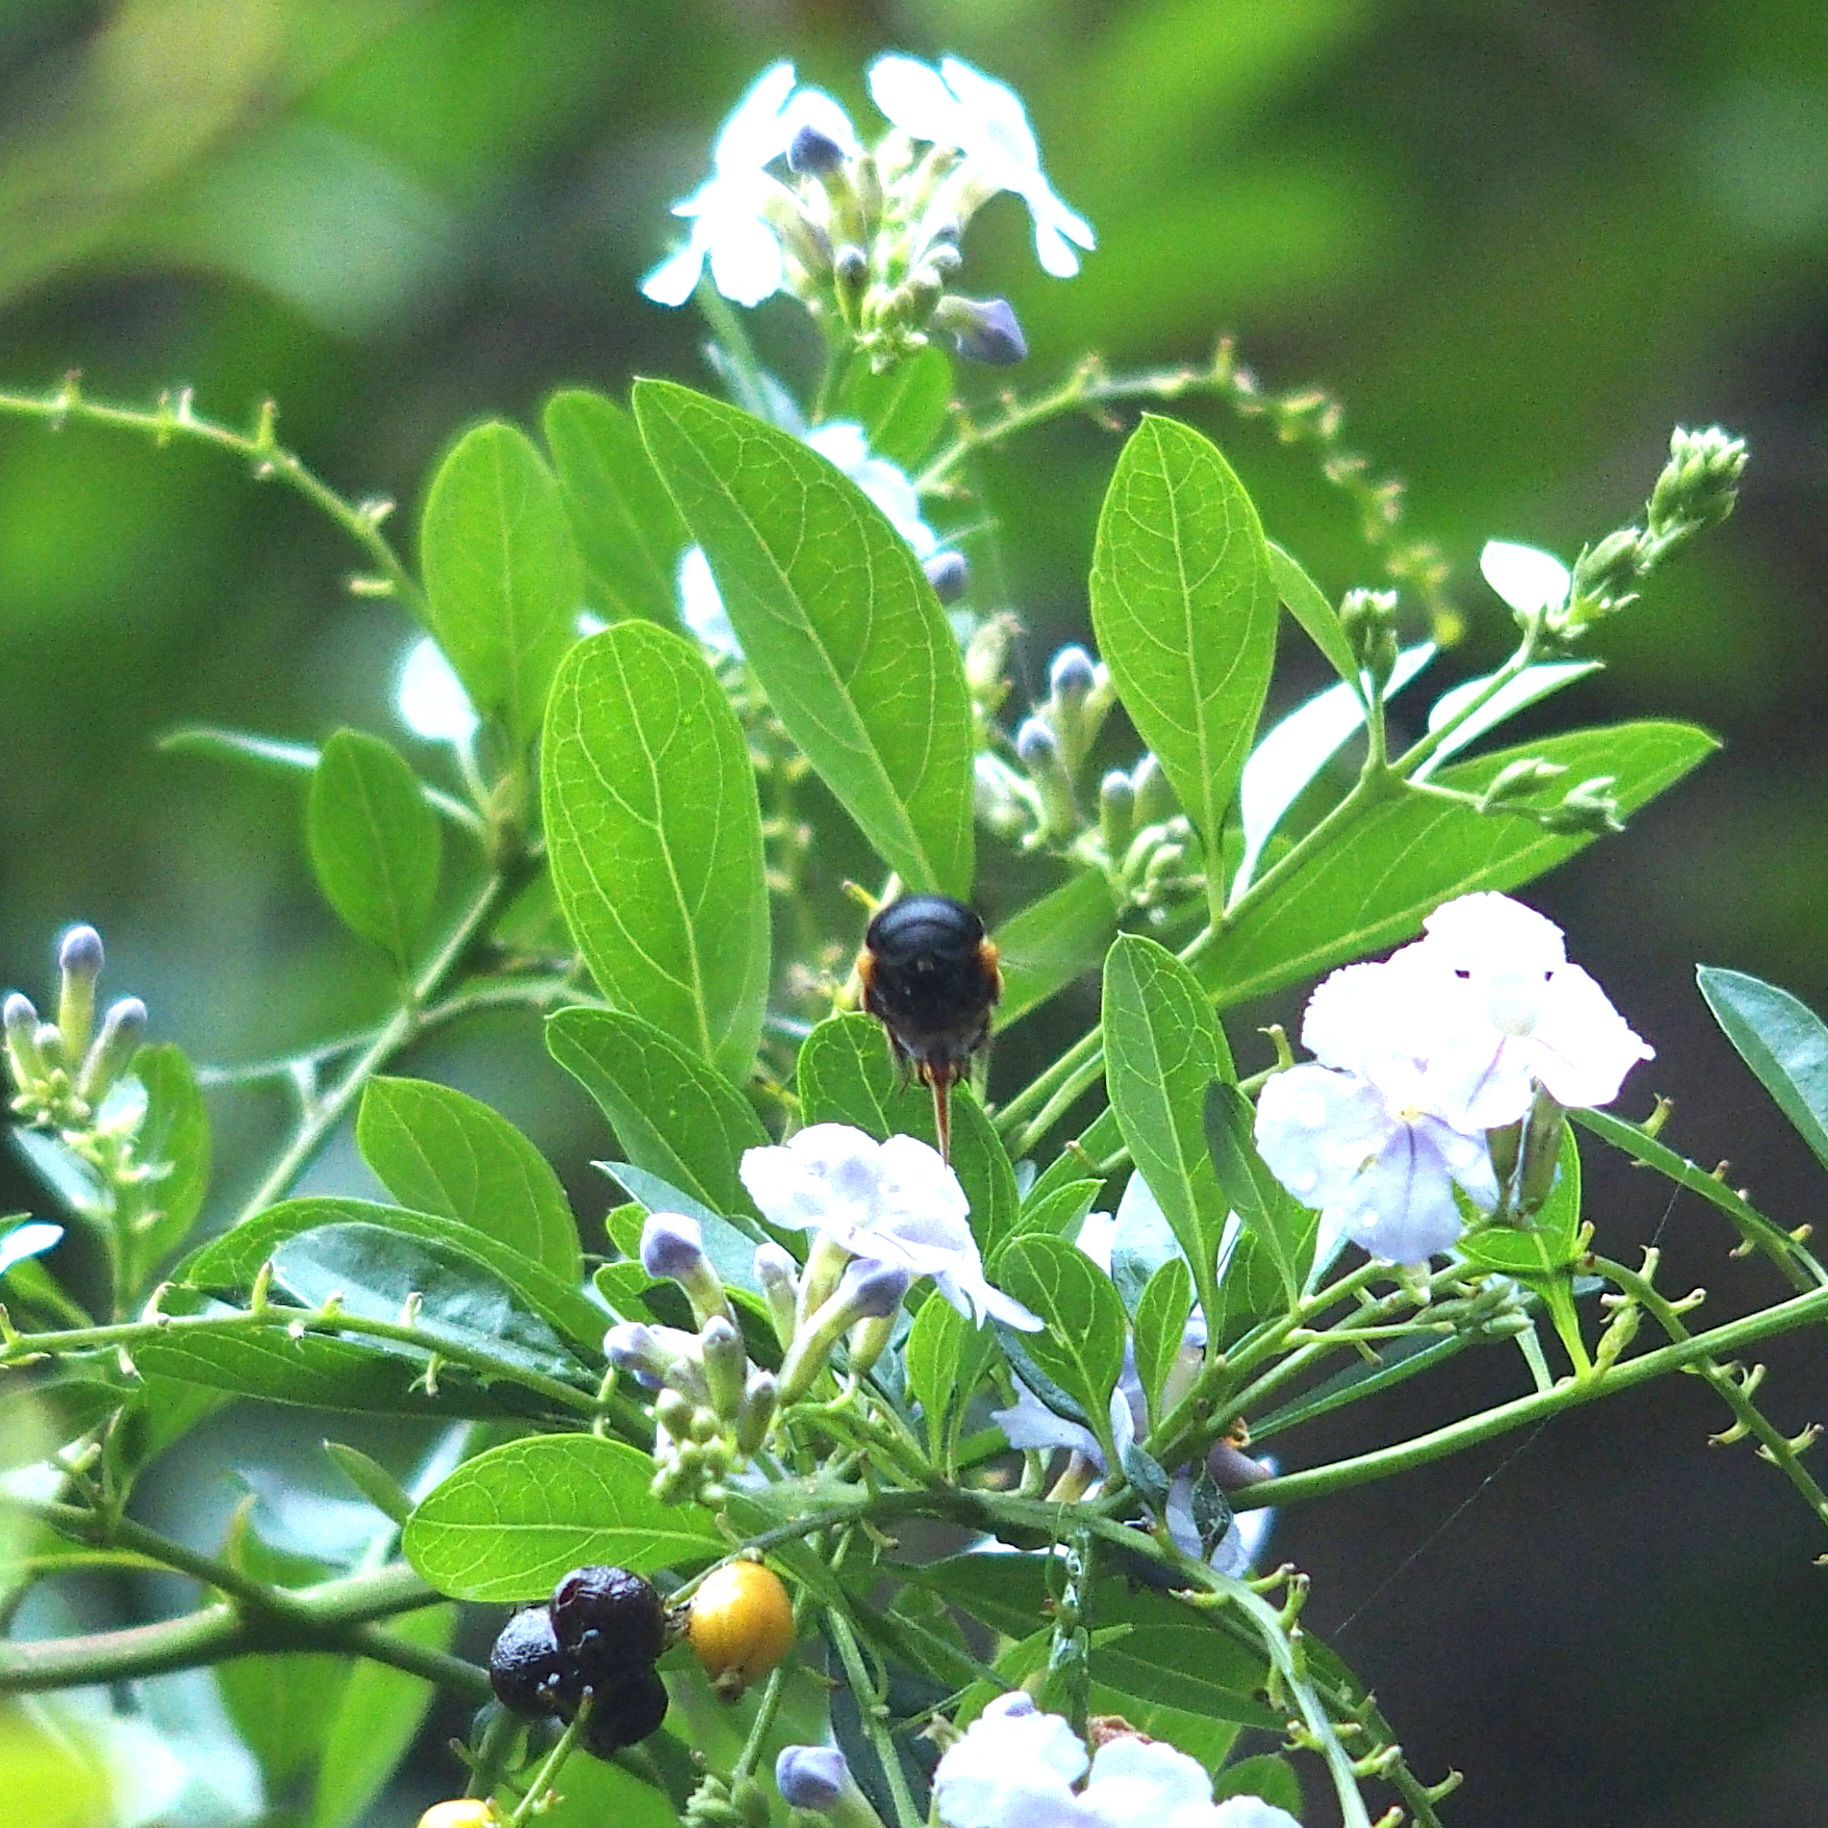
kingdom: Animalia
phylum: Arthropoda
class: Insecta
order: Hymenoptera
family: Apidae
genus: Amegilla
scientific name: Amegilla urens
